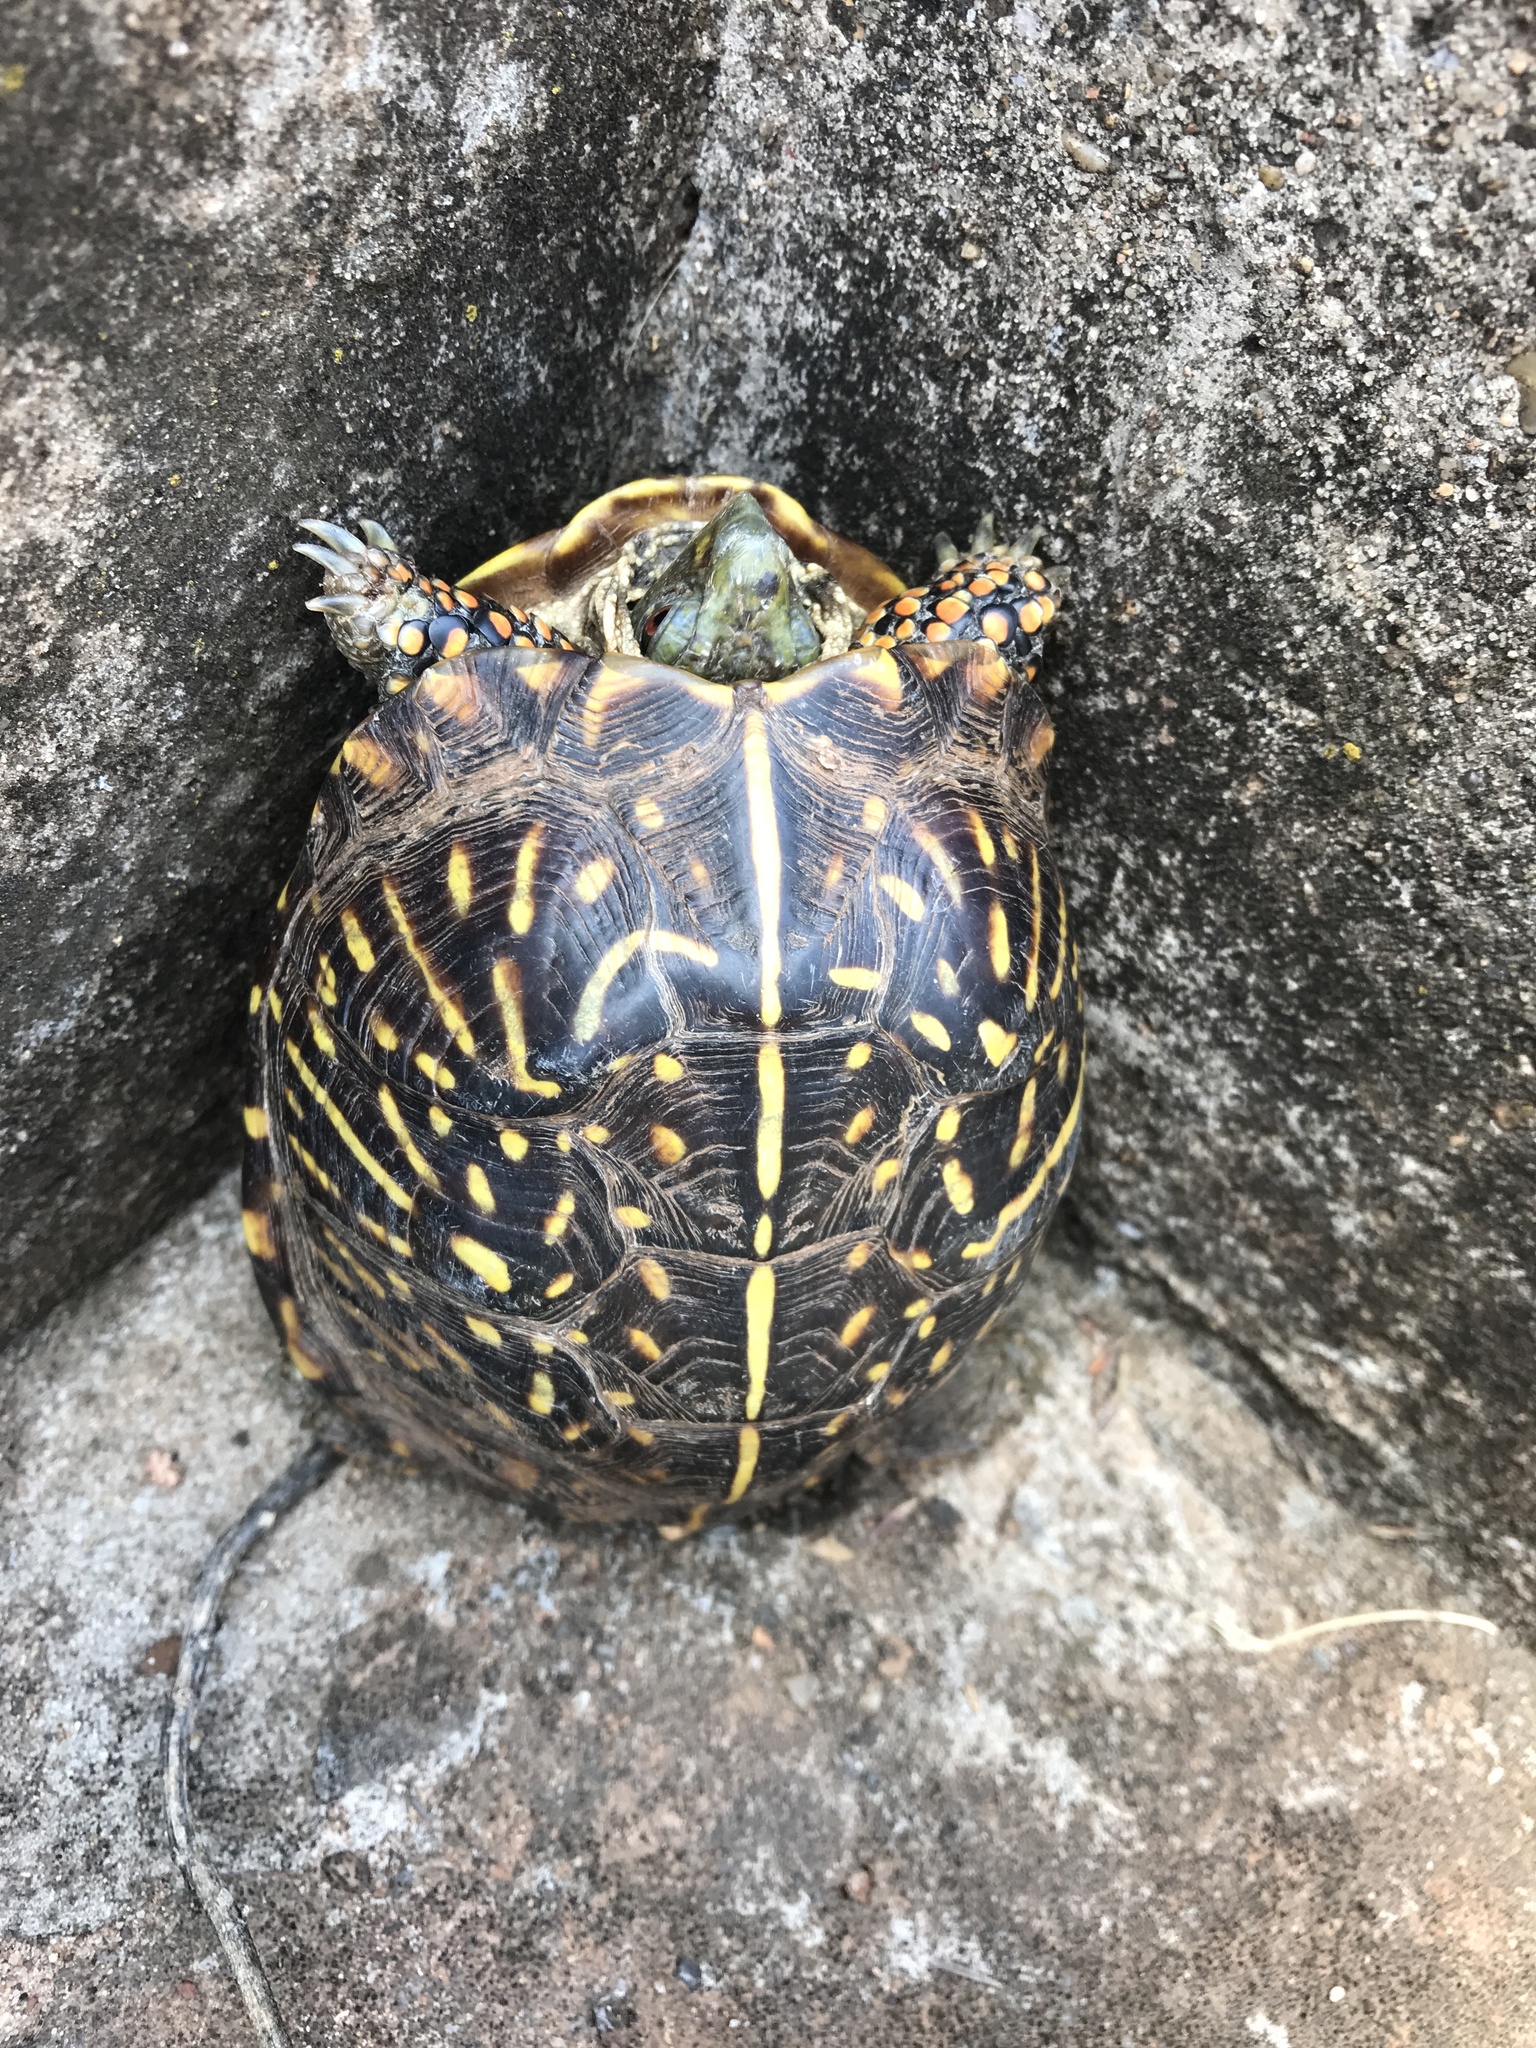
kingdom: Animalia
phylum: Chordata
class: Testudines
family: Emydidae
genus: Terrapene
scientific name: Terrapene ornata
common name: Western box turtle
